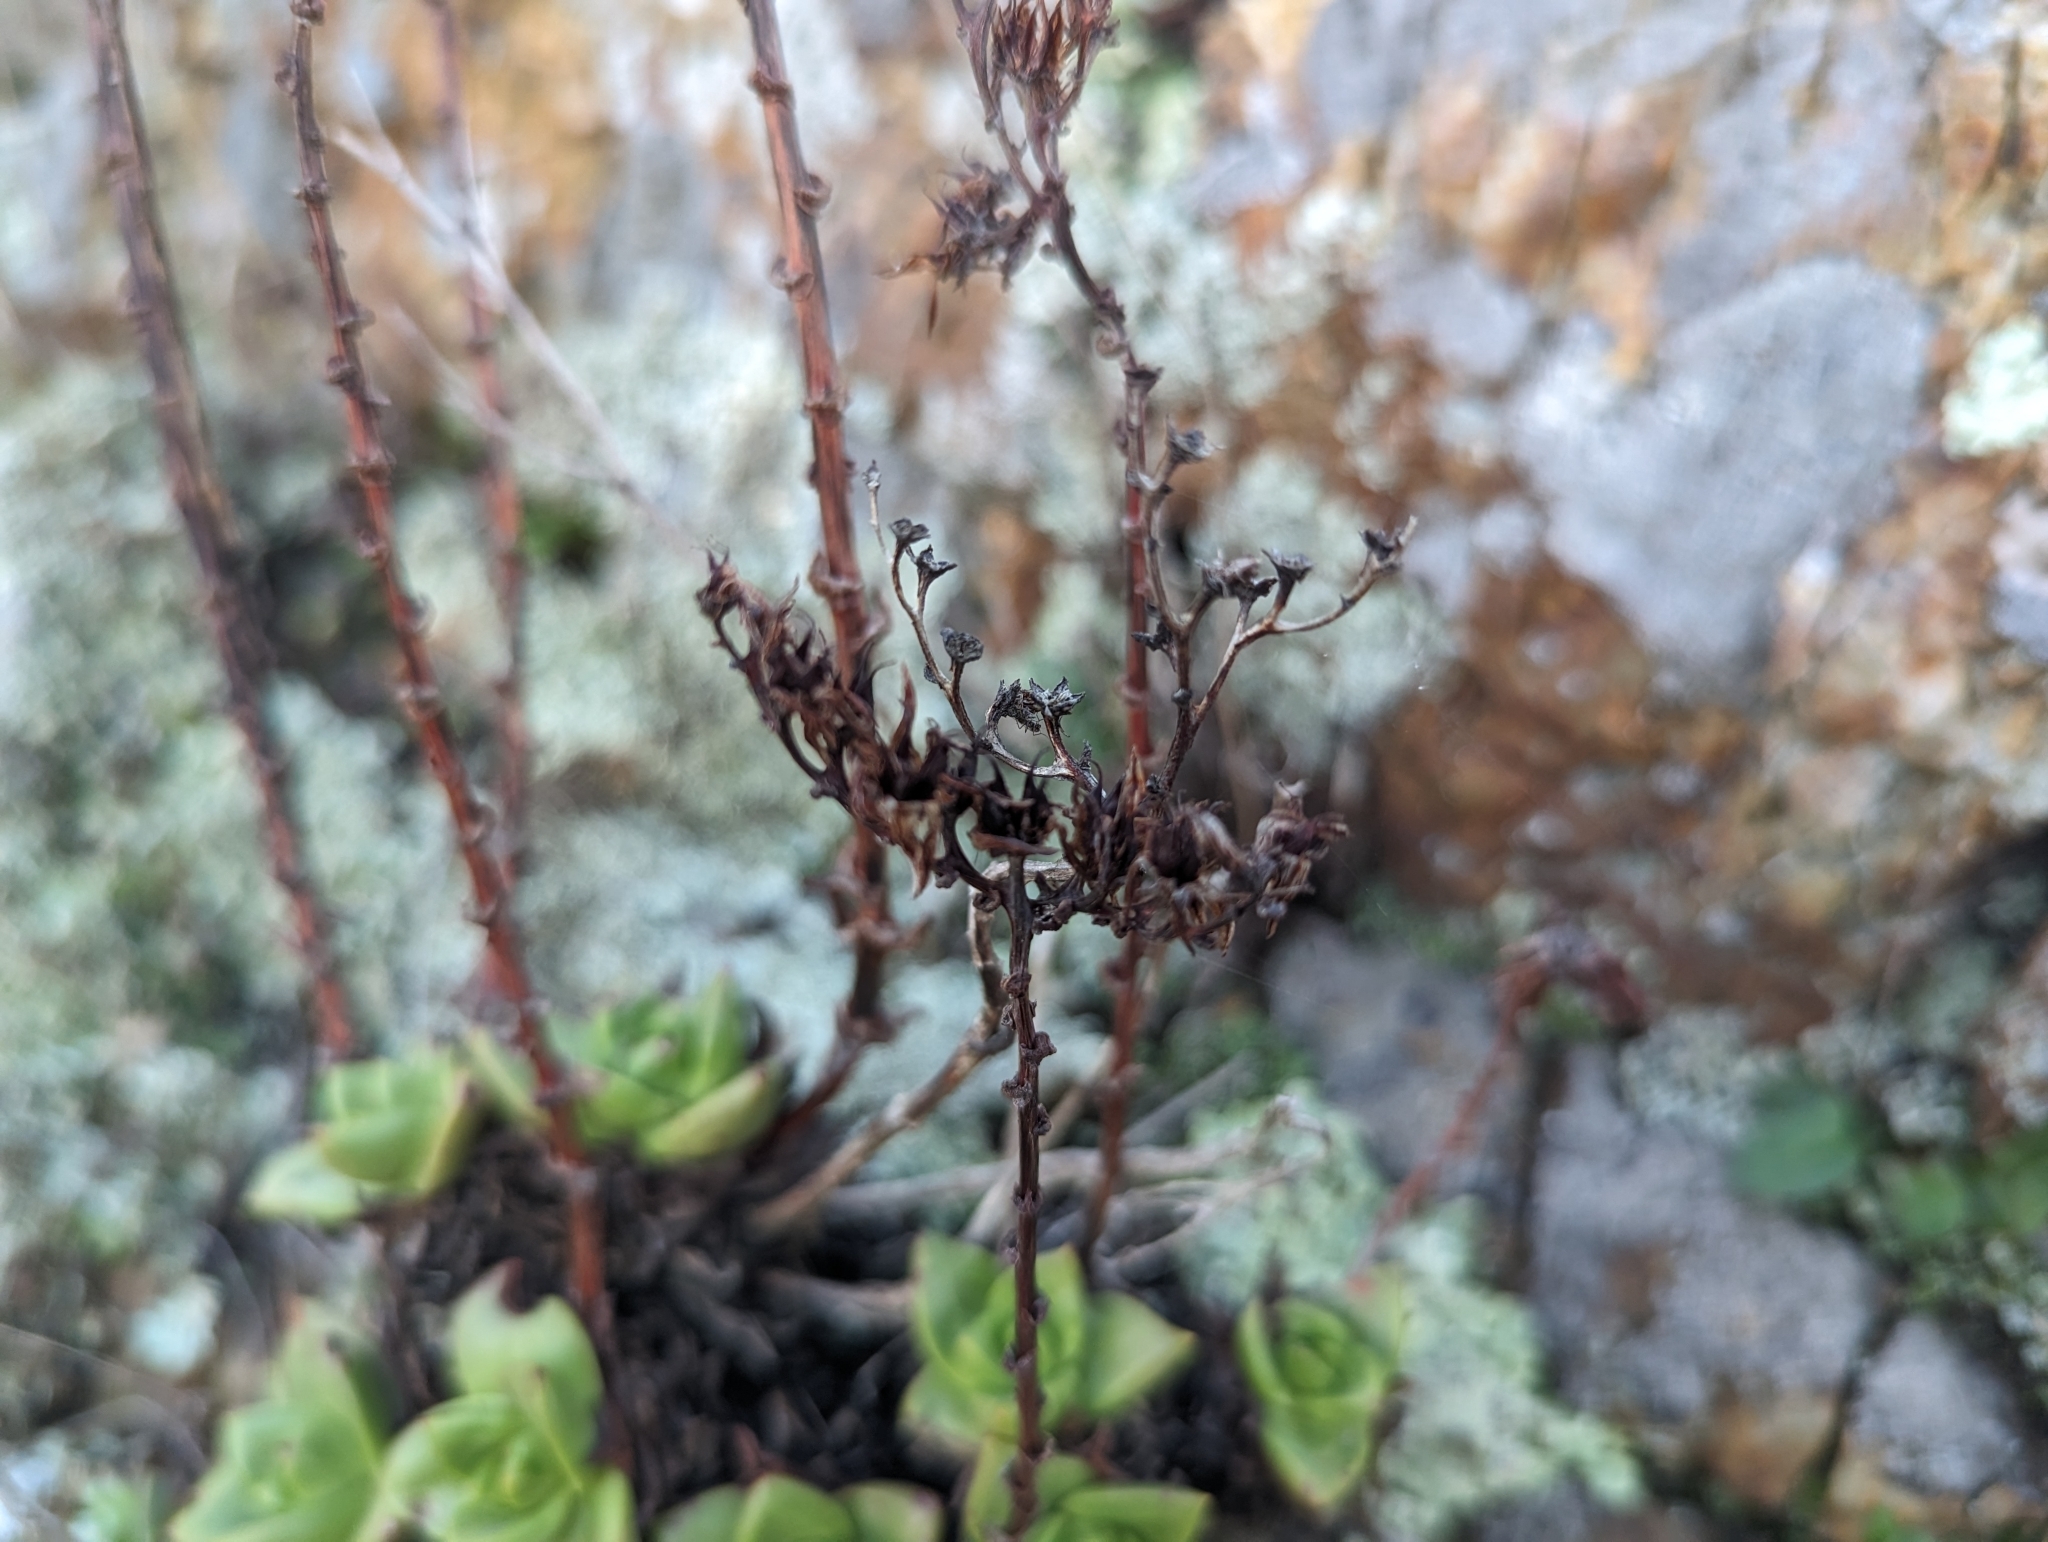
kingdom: Plantae
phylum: Tracheophyta
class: Magnoliopsida
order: Saxifragales
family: Crassulaceae
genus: Dudleya
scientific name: Dudleya farinosa
